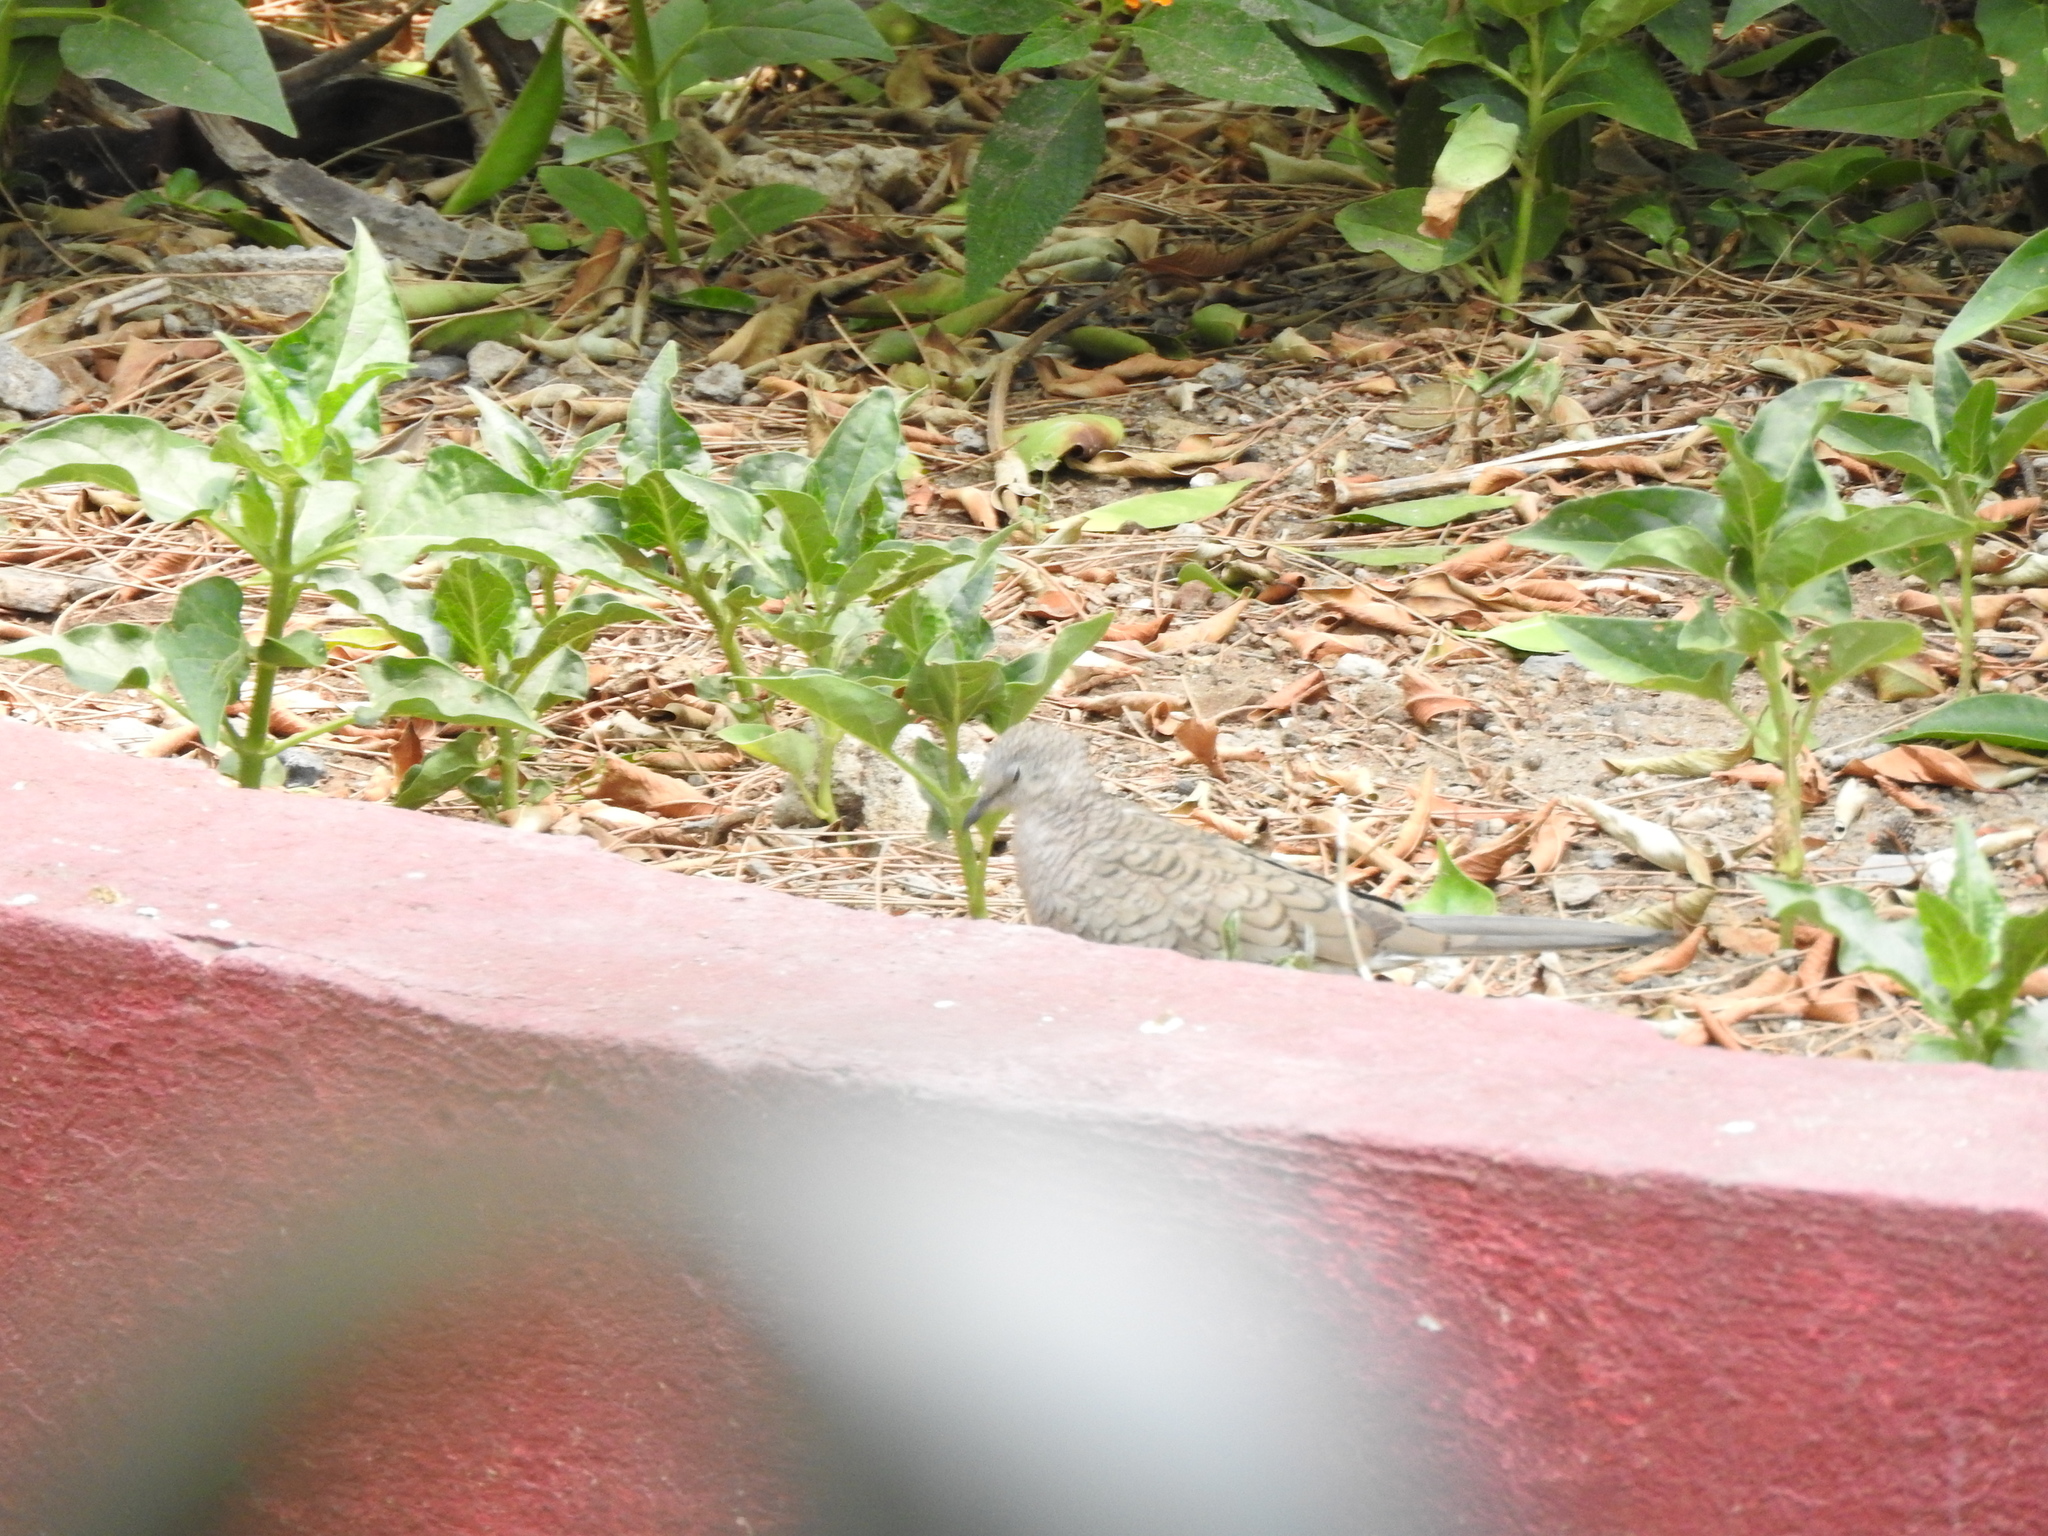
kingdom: Animalia
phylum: Chordata
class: Aves
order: Columbiformes
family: Columbidae
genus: Columbina
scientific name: Columbina inca
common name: Inca dove
